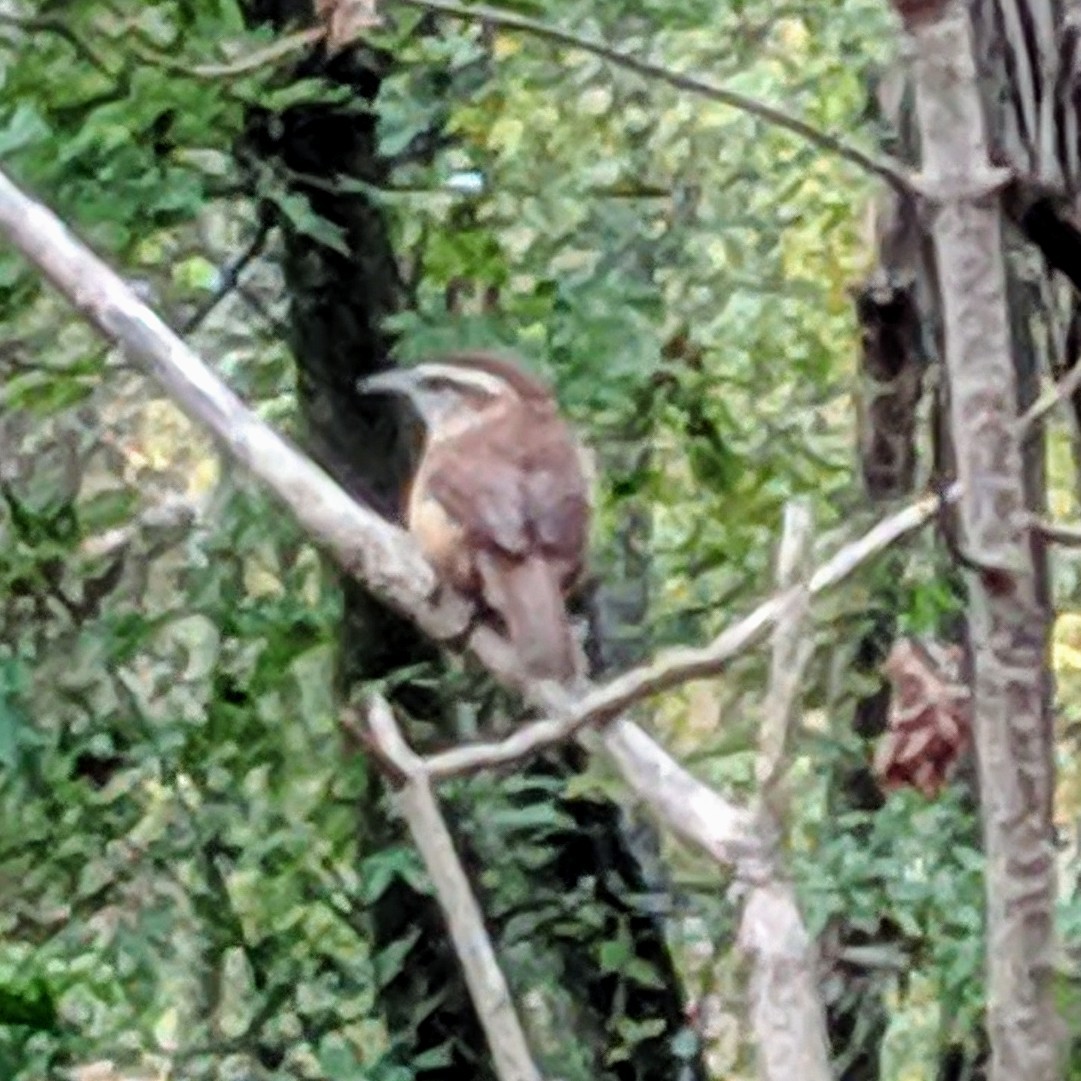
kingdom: Animalia
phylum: Chordata
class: Aves
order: Passeriformes
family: Troglodytidae
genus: Thryothorus
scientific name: Thryothorus ludovicianus
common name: Carolina wren
